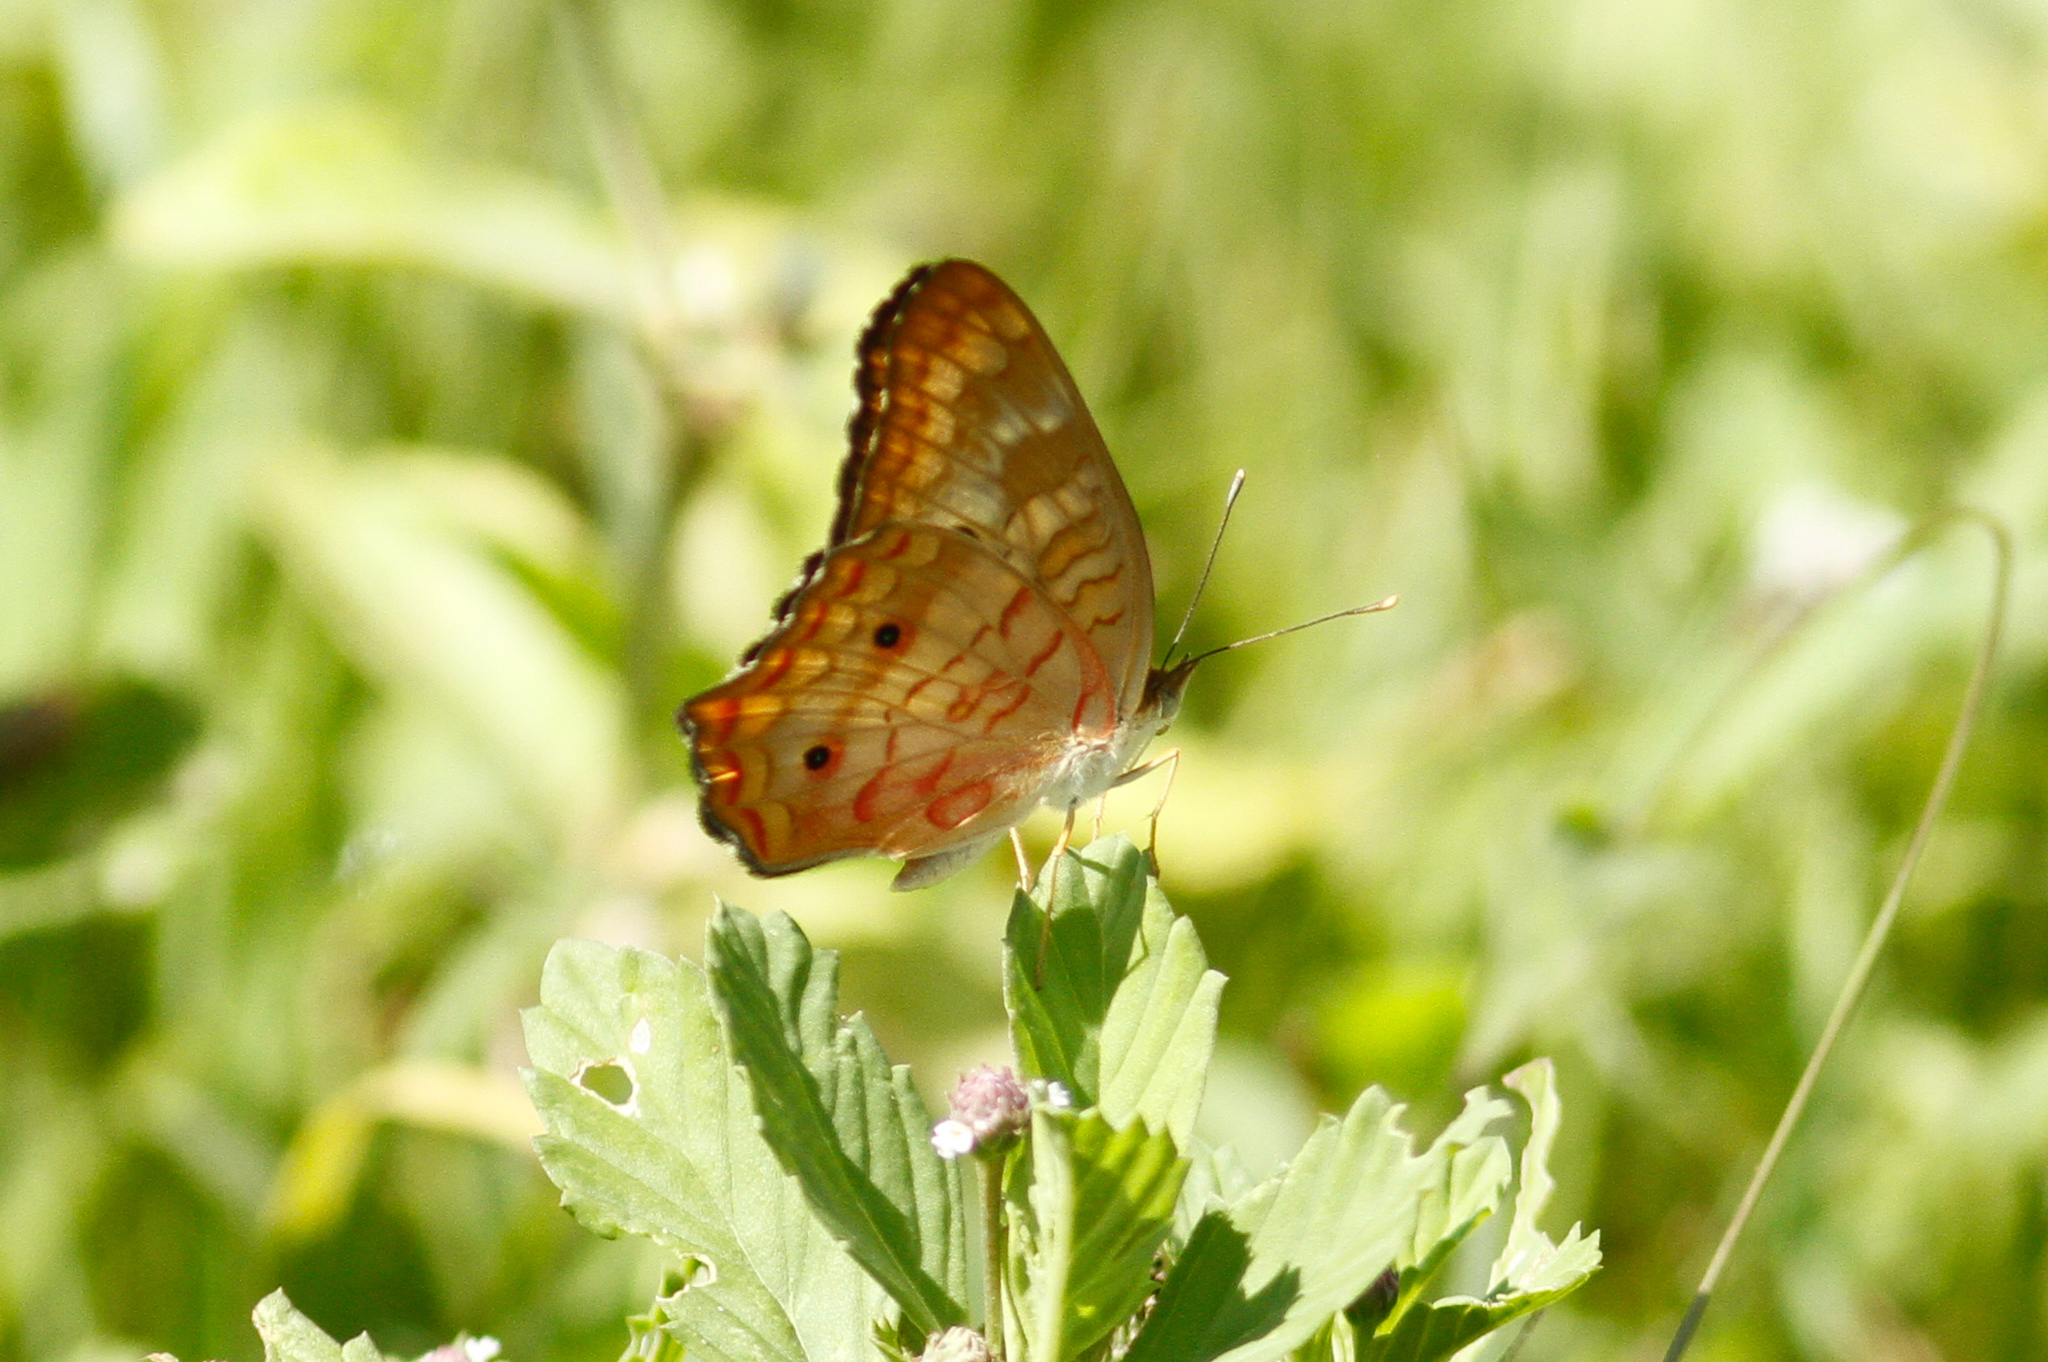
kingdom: Animalia
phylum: Arthropoda
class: Insecta
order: Lepidoptera
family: Nymphalidae
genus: Anartia
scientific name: Anartia jatrophae
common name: White peacock
